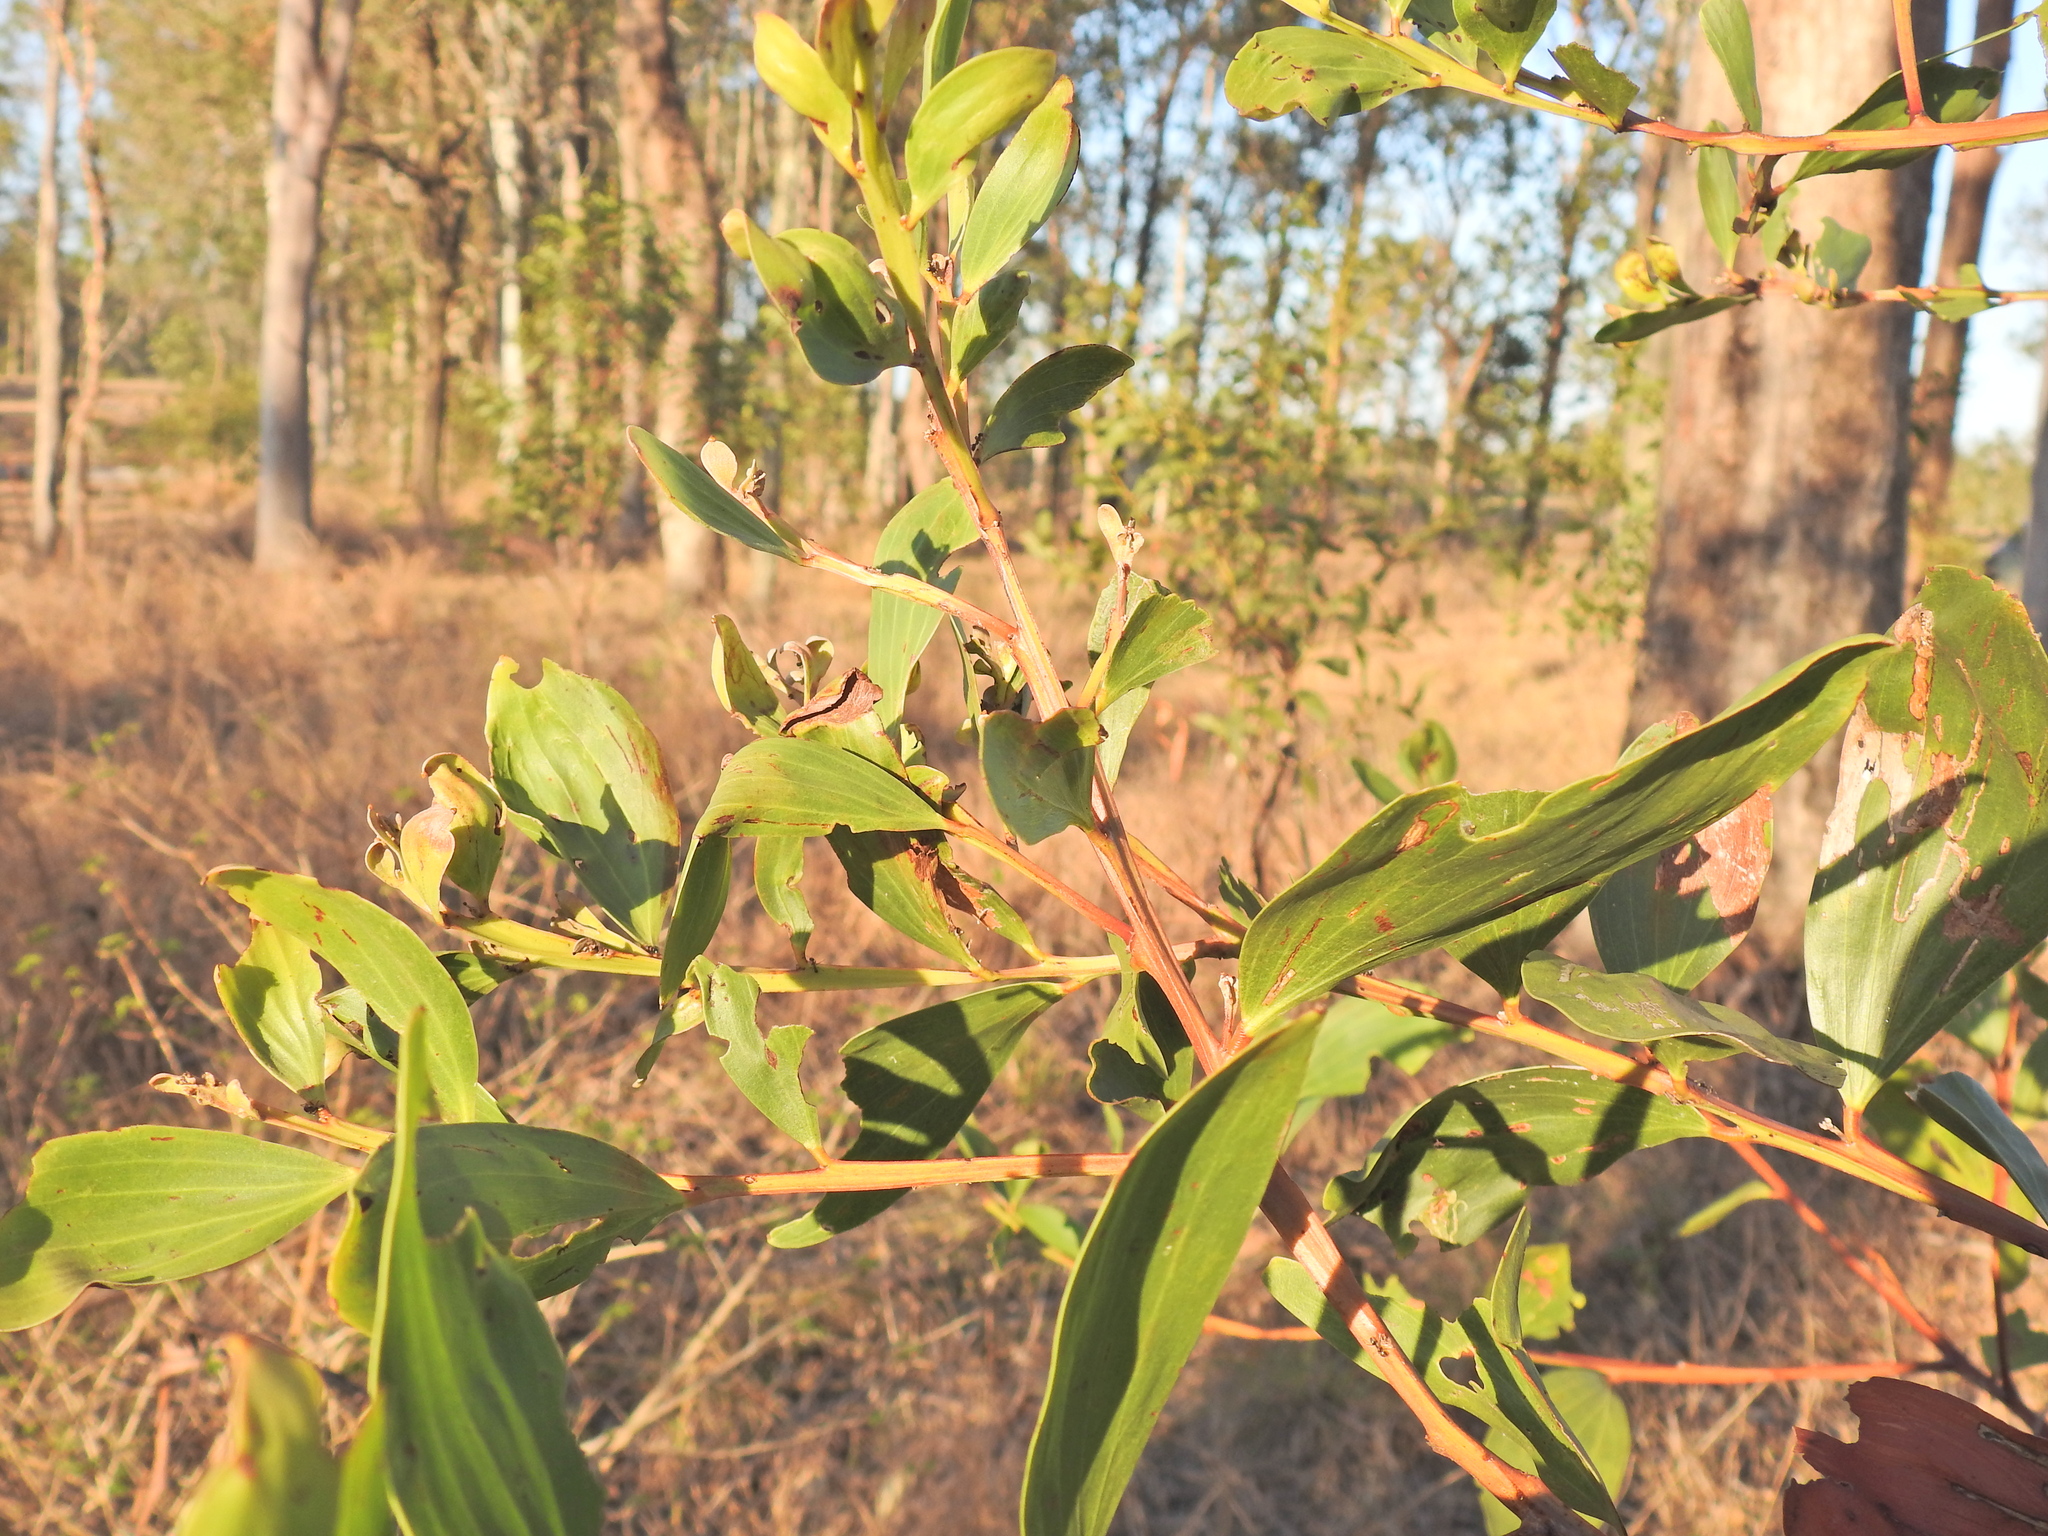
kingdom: Plantae
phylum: Tracheophyta
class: Magnoliopsida
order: Fabales
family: Fabaceae
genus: Acacia
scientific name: Acacia leiocalyx
